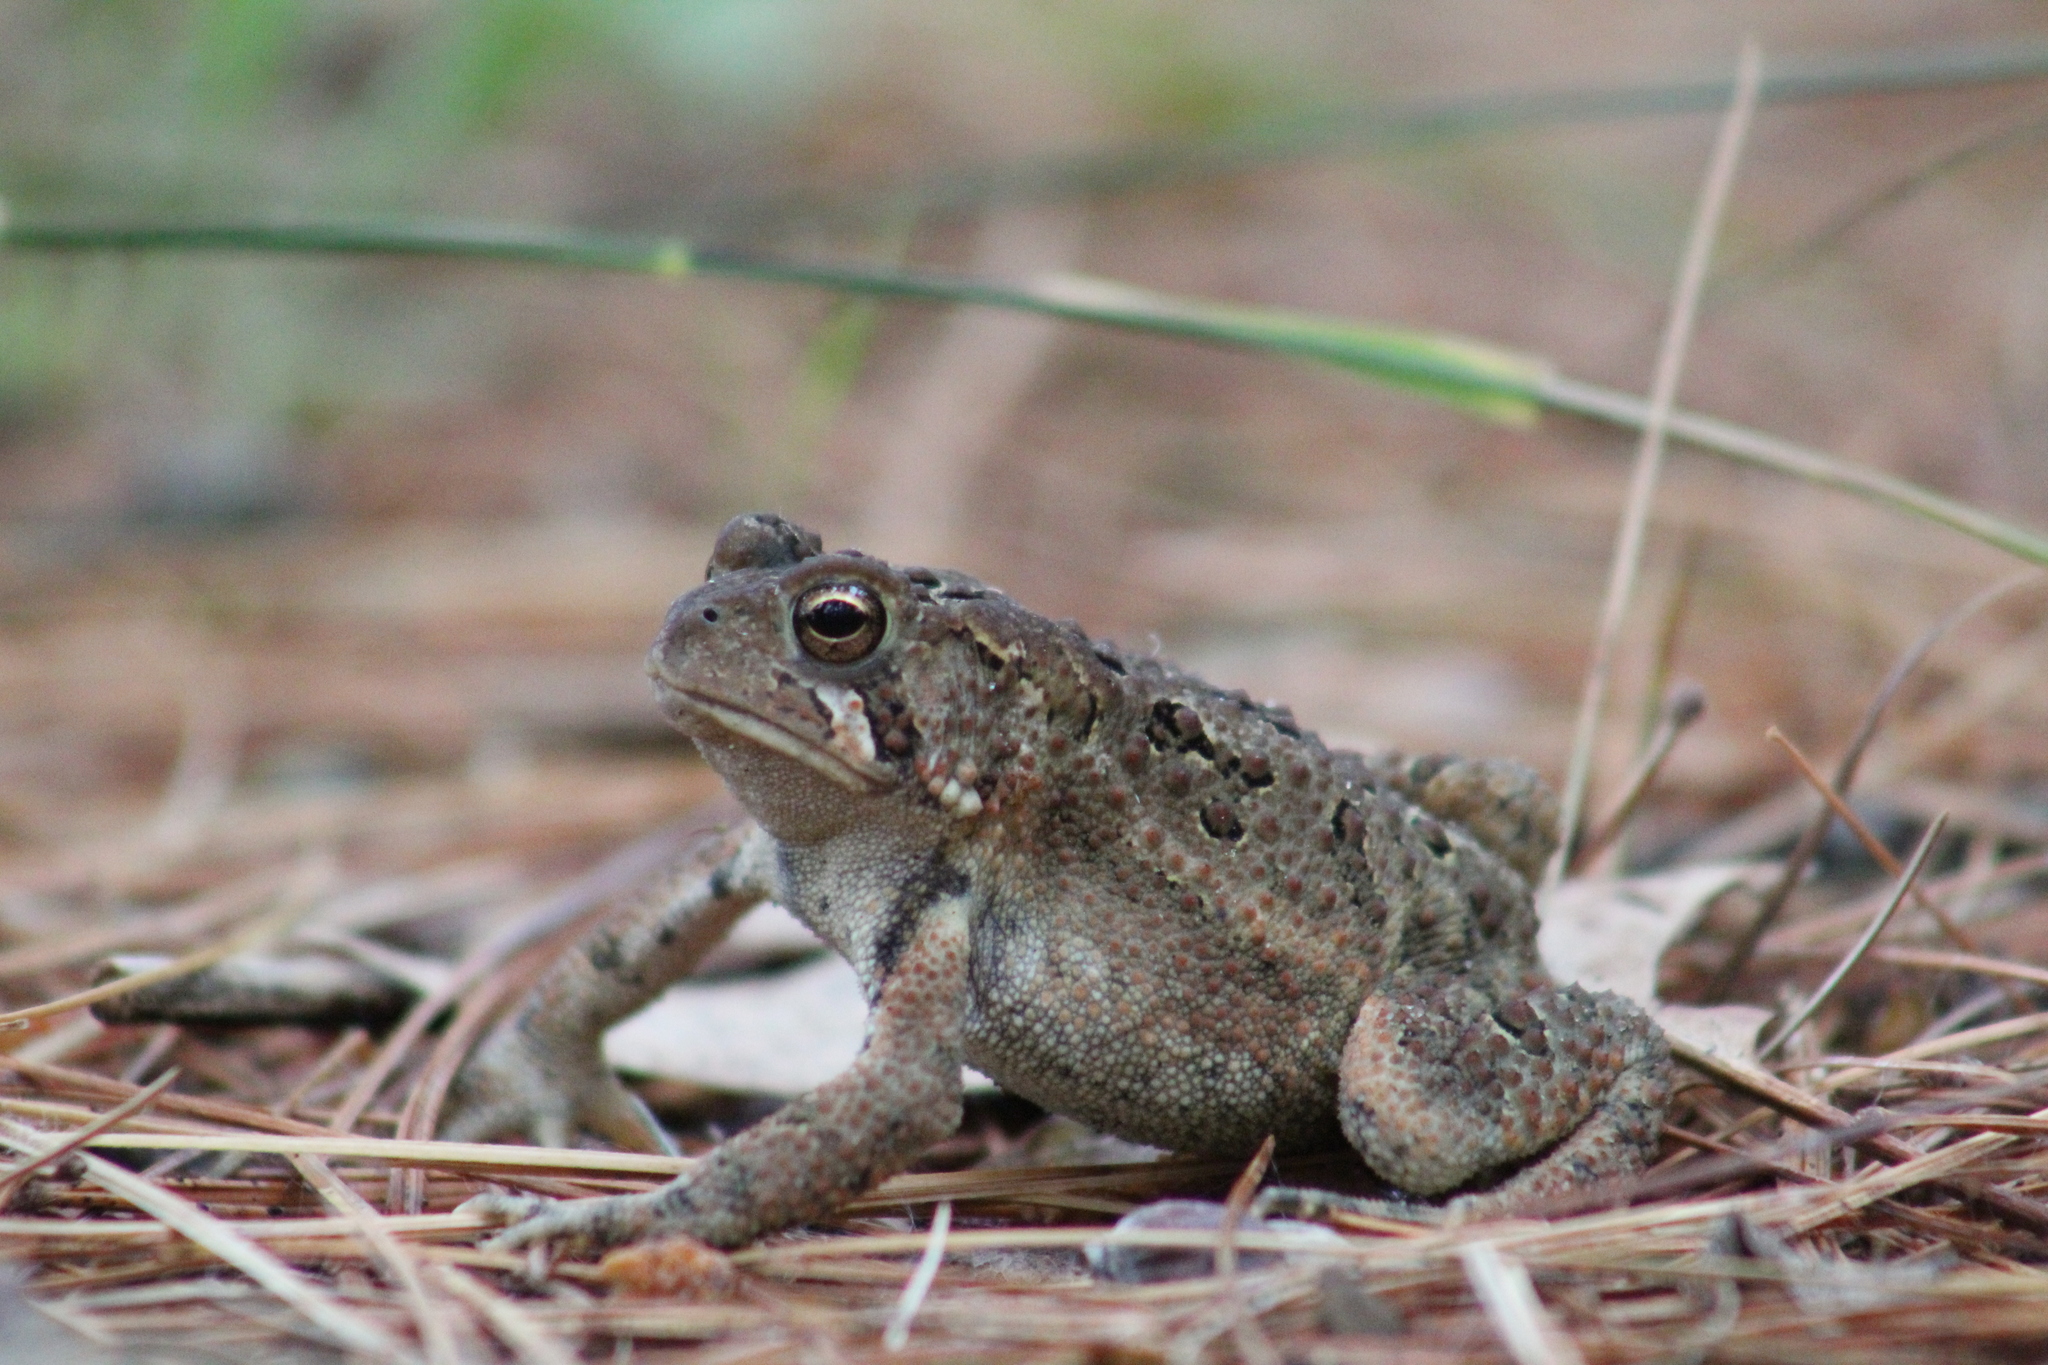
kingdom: Animalia
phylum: Chordata
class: Amphibia
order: Anura
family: Bufonidae
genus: Anaxyrus
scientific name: Anaxyrus americanus
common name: American toad
